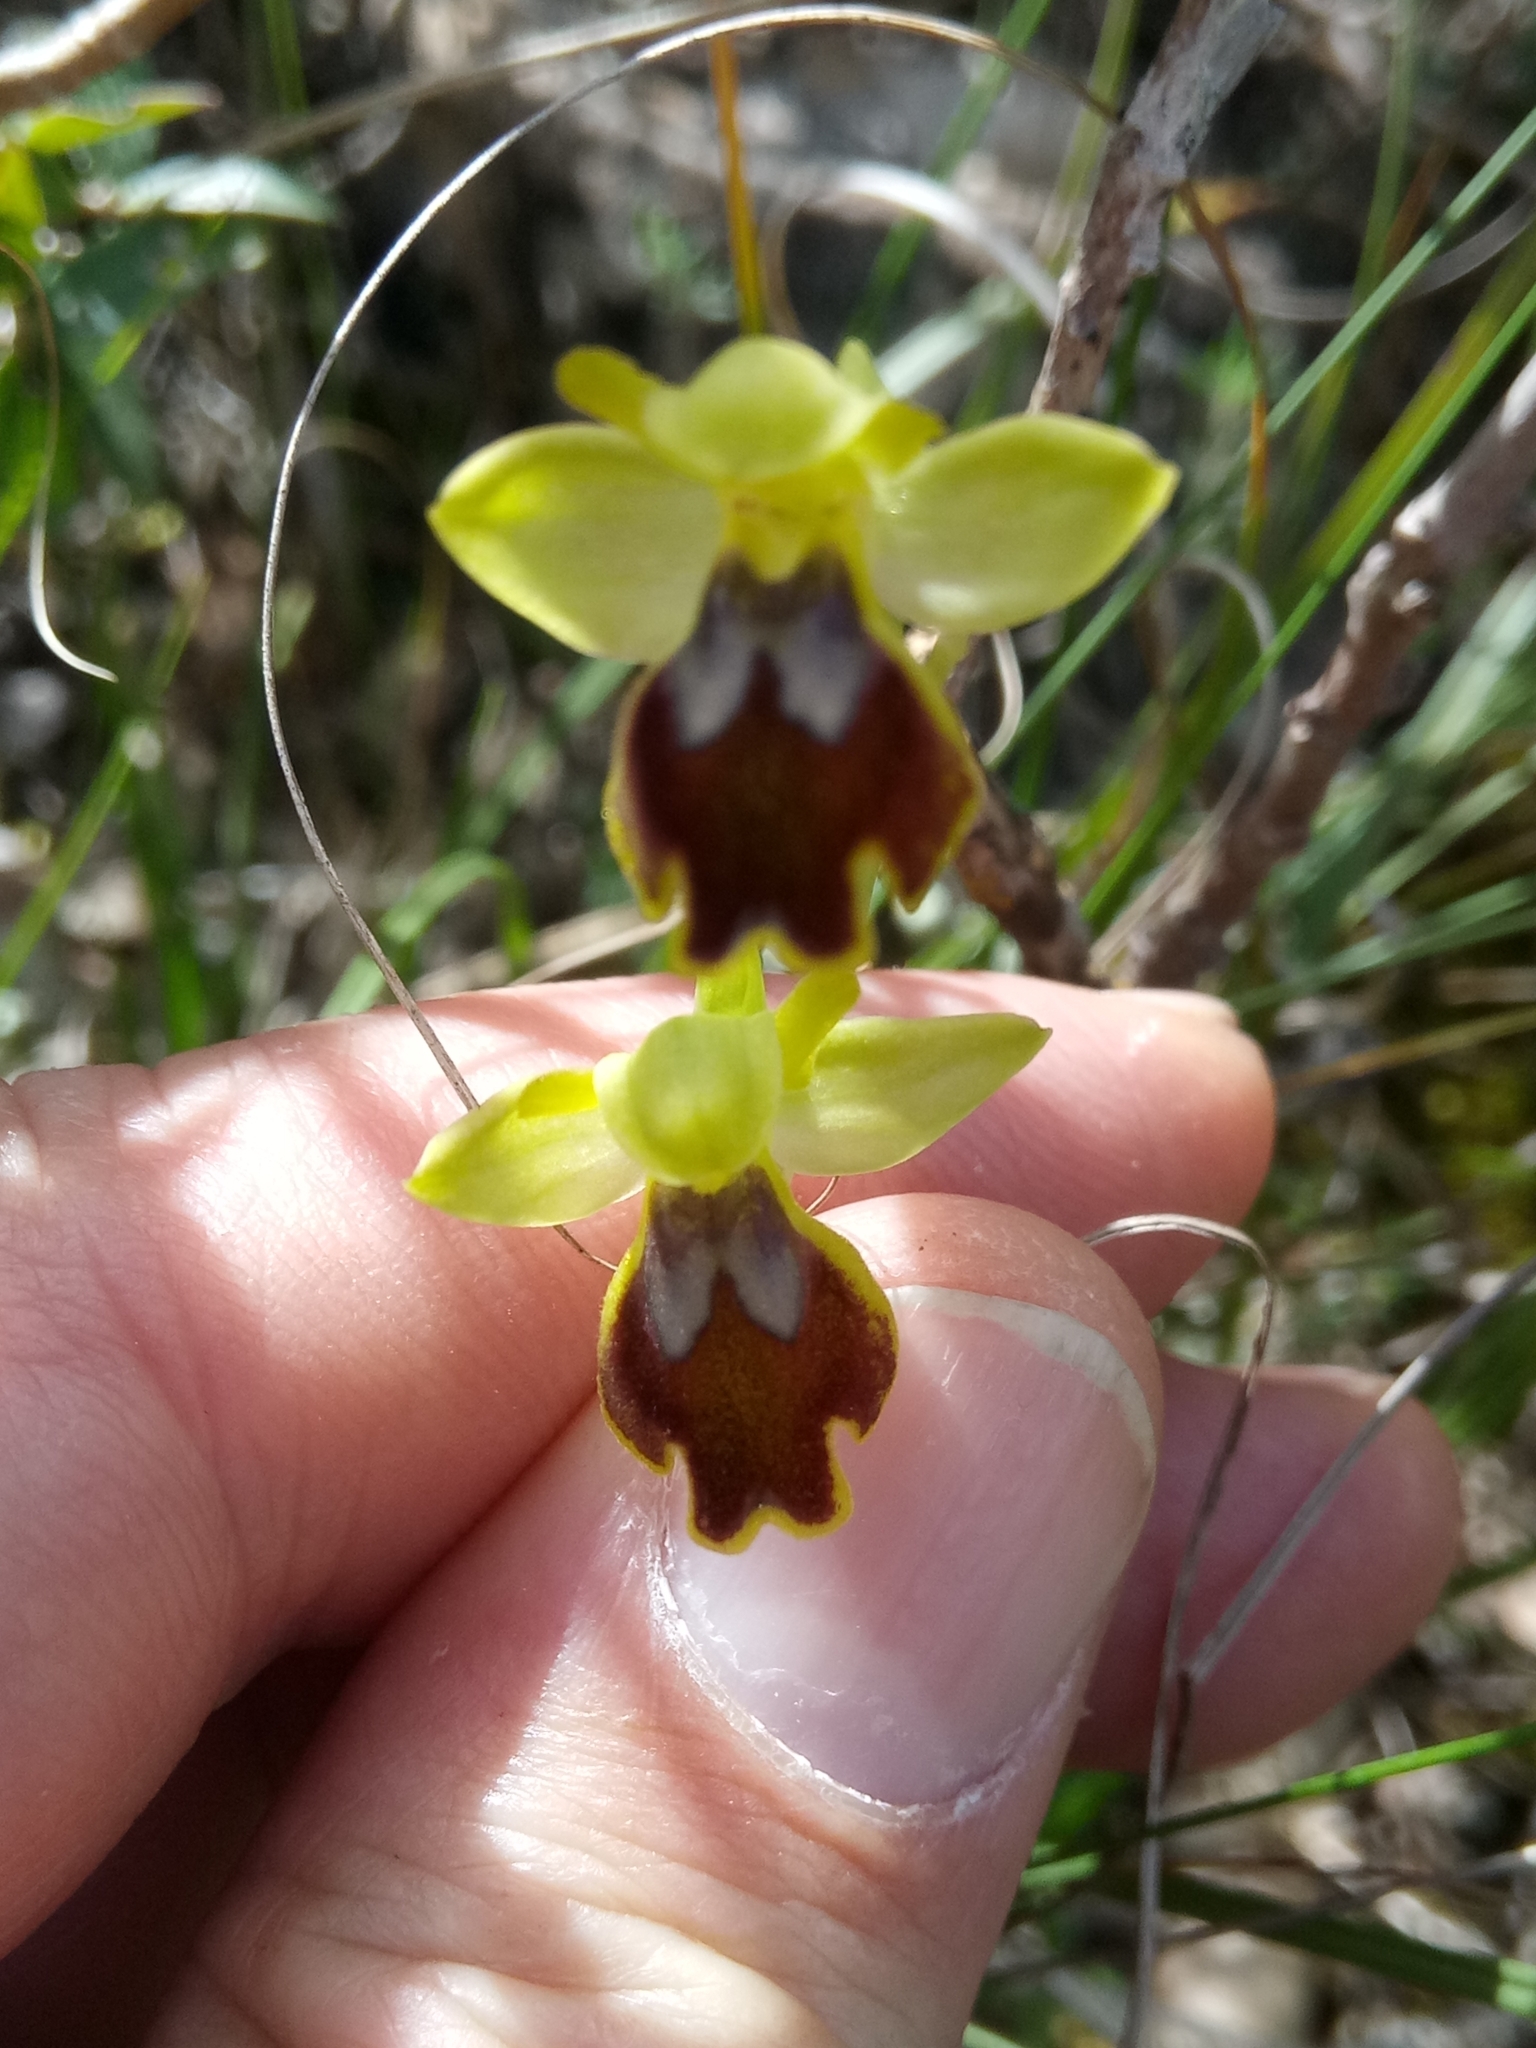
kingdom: Plantae
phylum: Tracheophyta
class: Liliopsida
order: Asparagales
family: Orchidaceae
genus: Ophrys
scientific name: Ophrys fusca
